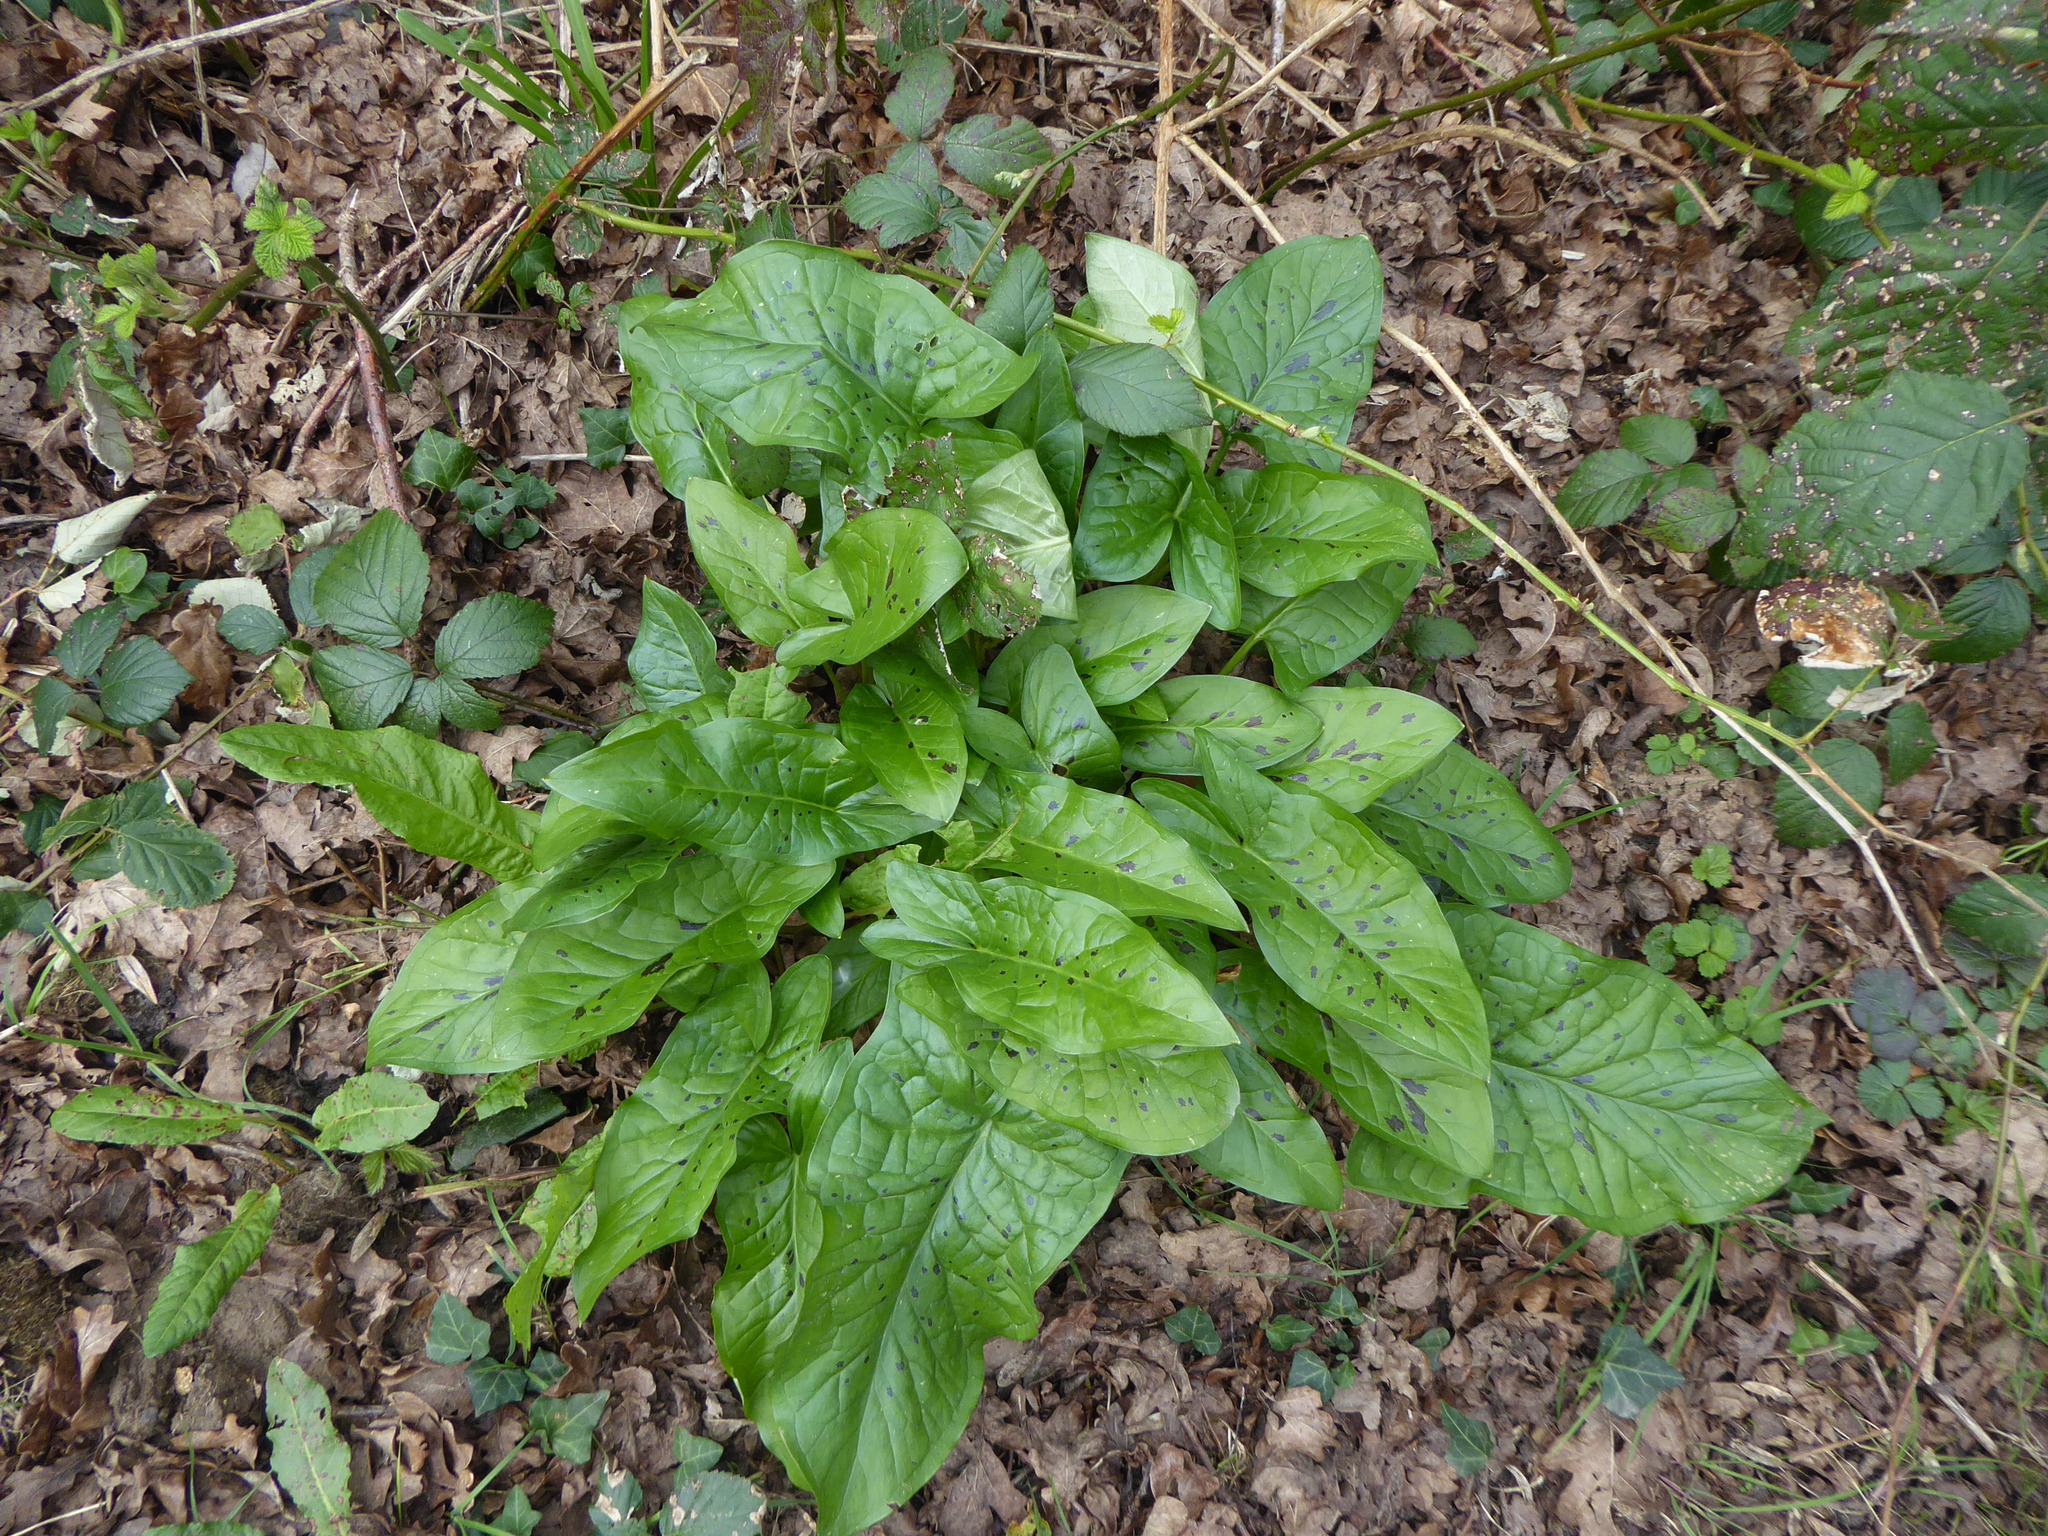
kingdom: Plantae
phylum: Tracheophyta
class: Liliopsida
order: Alismatales
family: Araceae
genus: Arum
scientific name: Arum maculatum
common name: Lords-and-ladies
